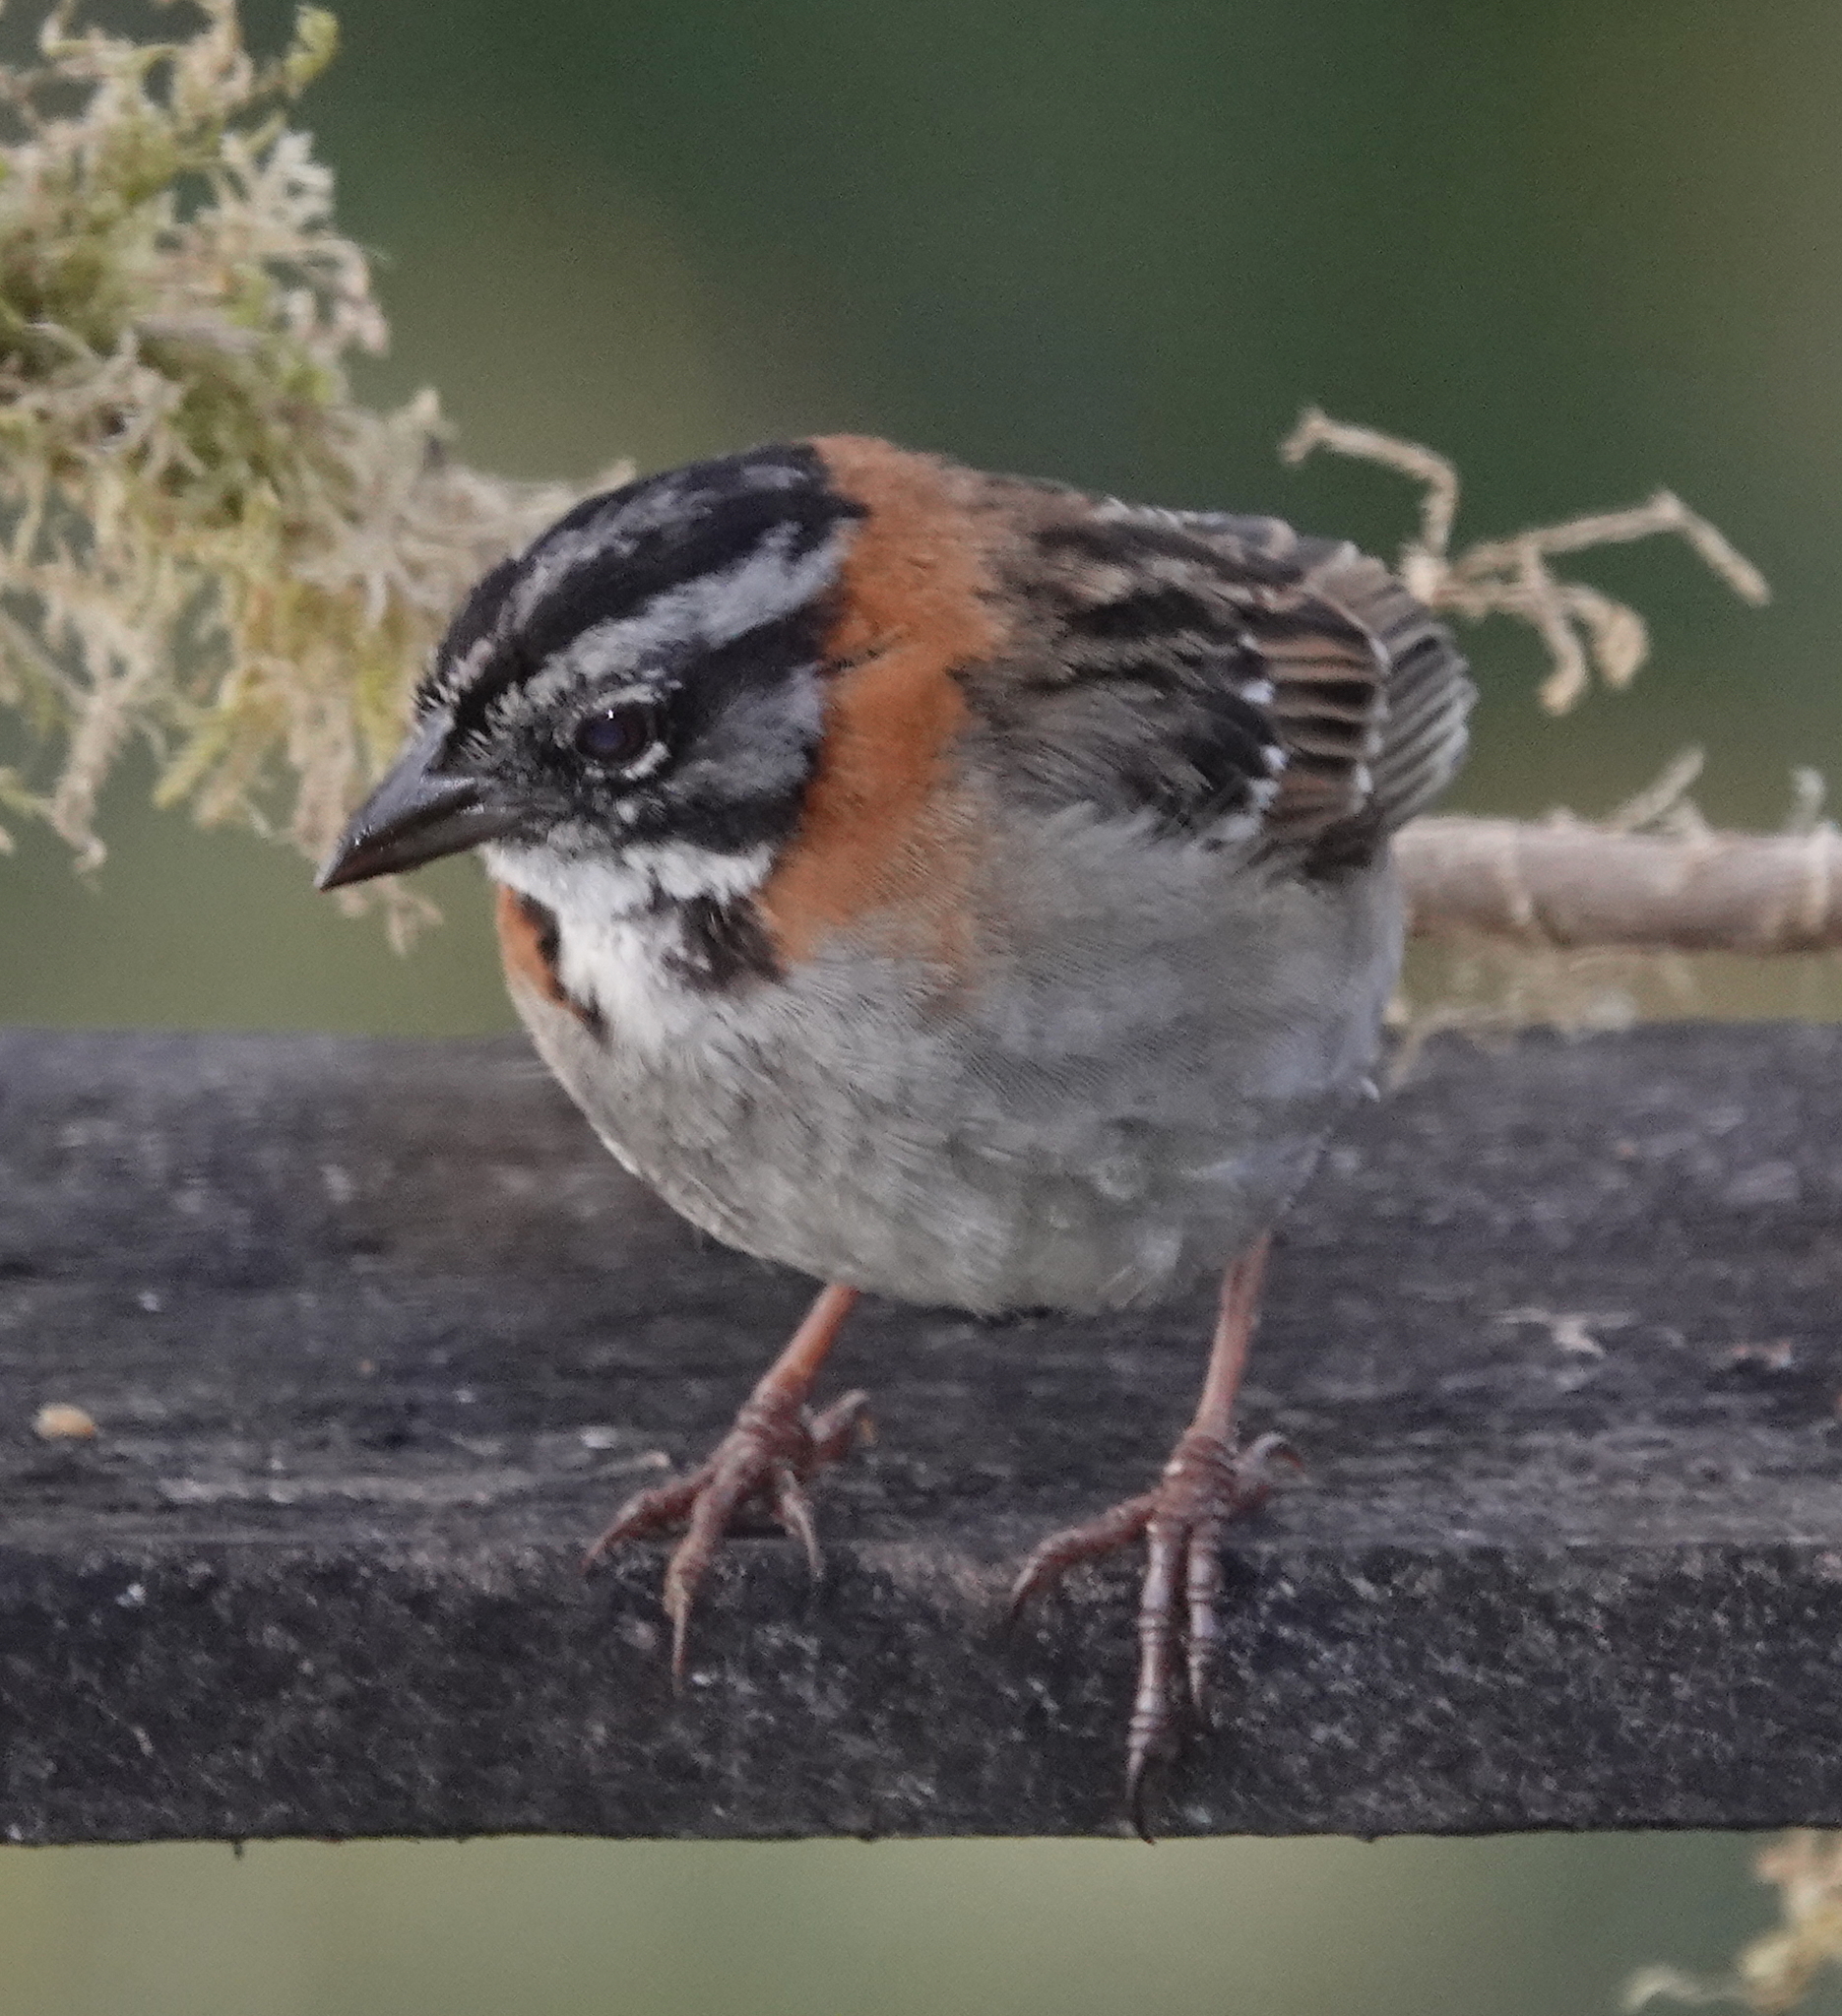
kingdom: Animalia
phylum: Chordata
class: Aves
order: Passeriformes
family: Passerellidae
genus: Zonotrichia
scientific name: Zonotrichia capensis
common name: Rufous-collared sparrow
